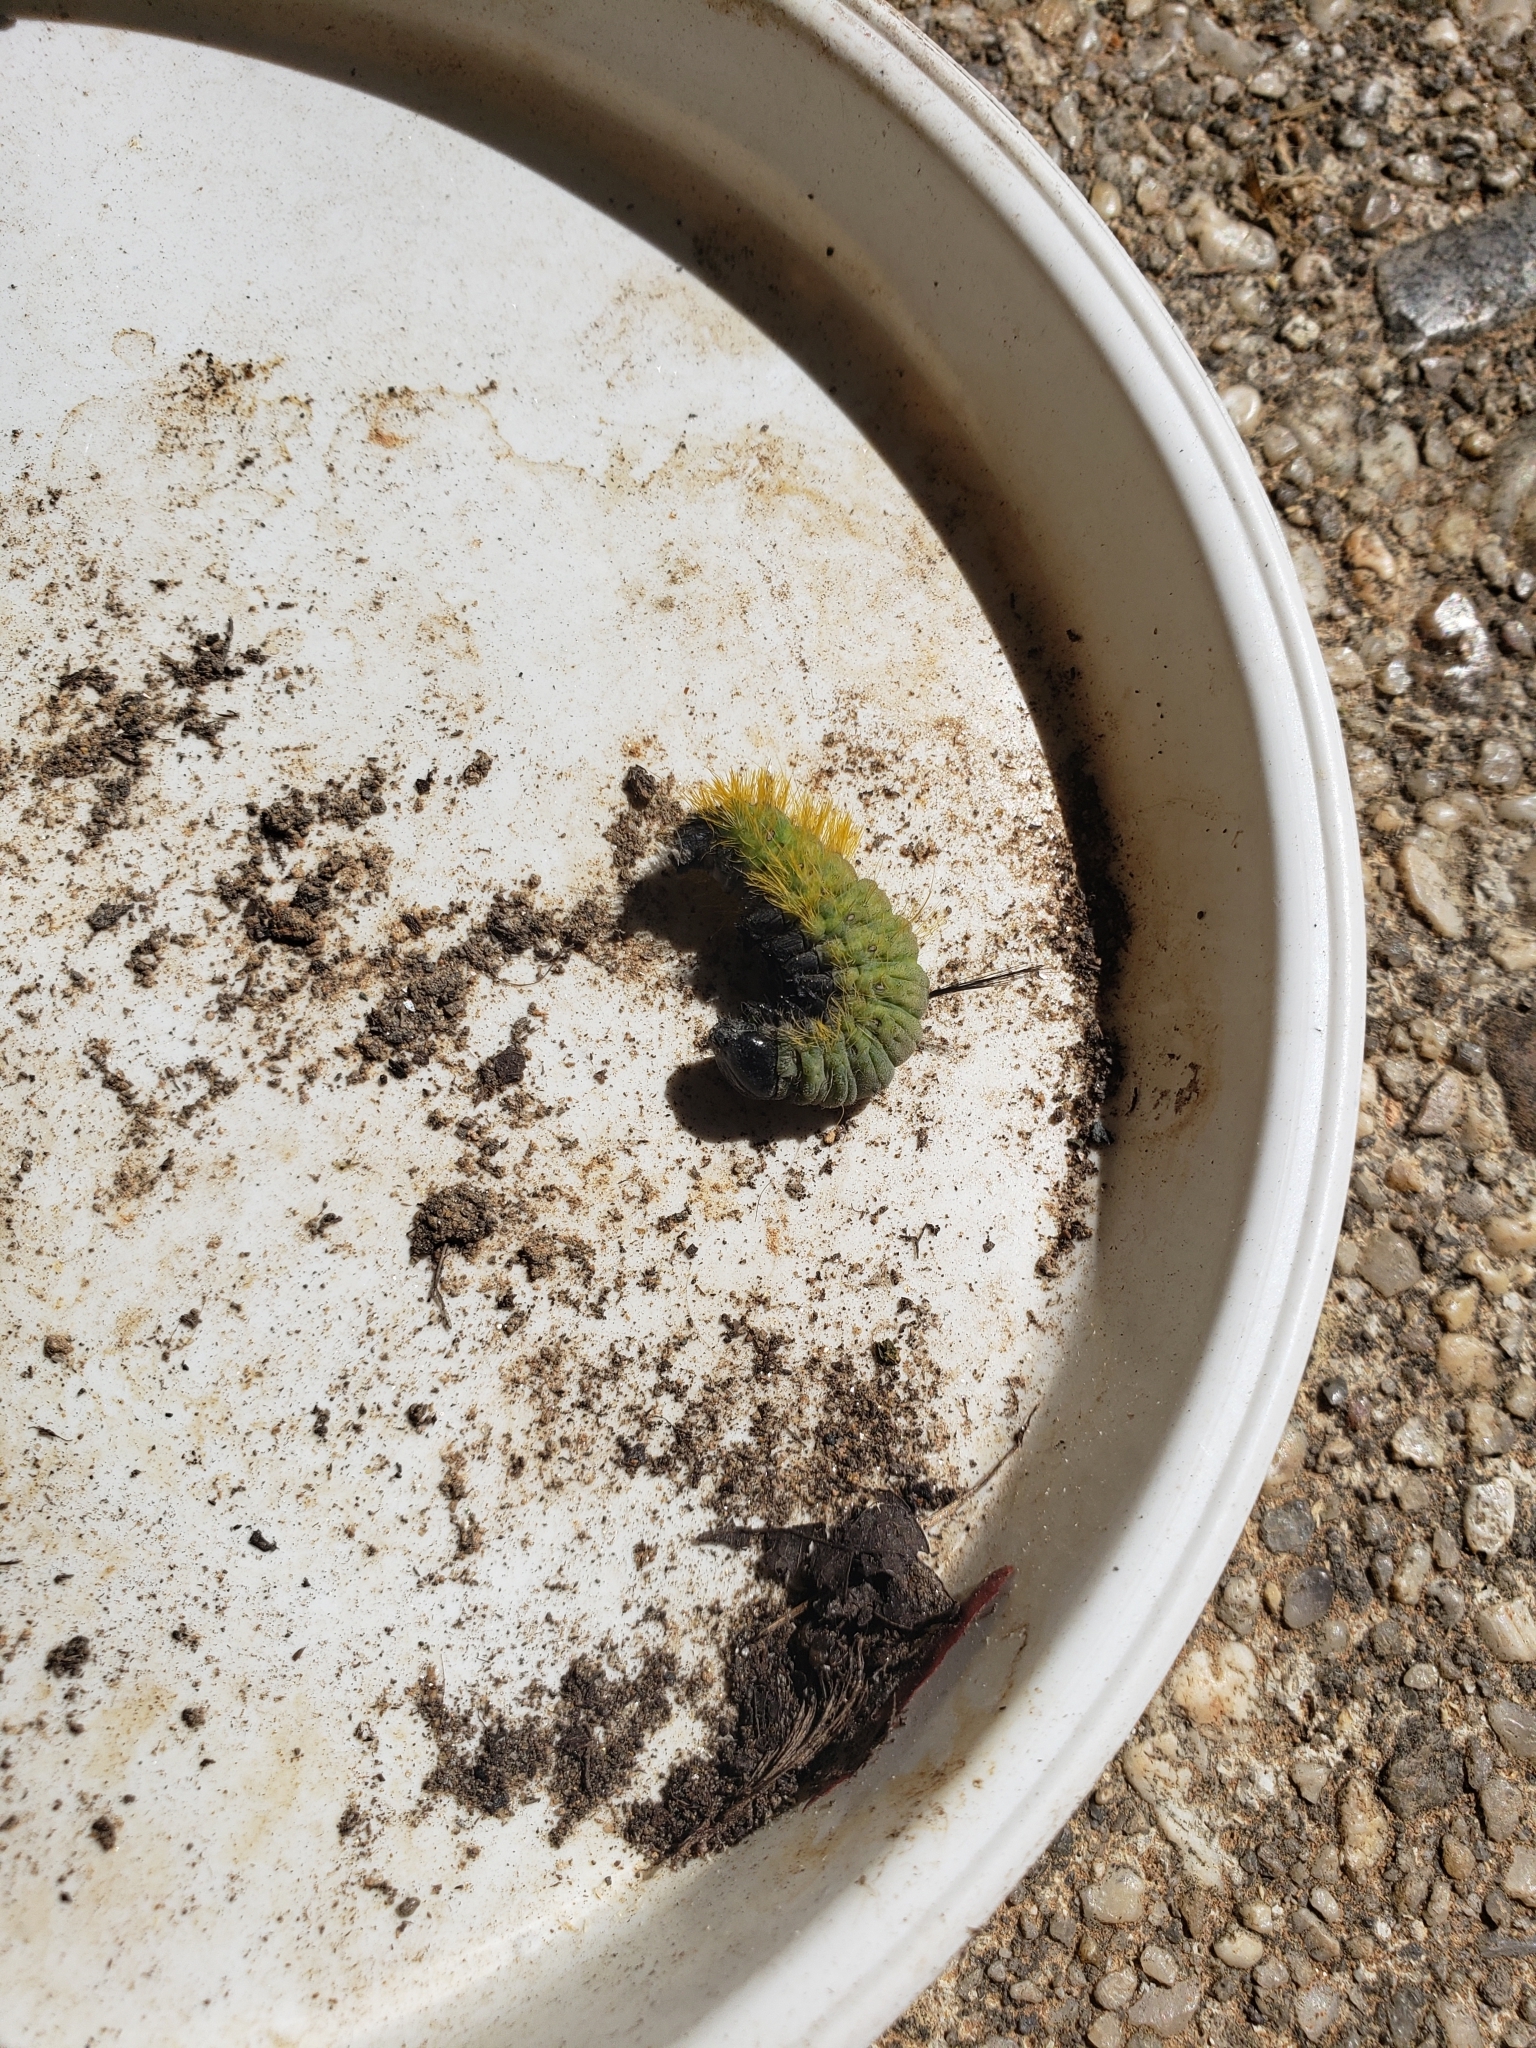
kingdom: Animalia
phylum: Arthropoda
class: Insecta
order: Lepidoptera
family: Noctuidae
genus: Acronicta
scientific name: Acronicta americana
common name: American dagger
